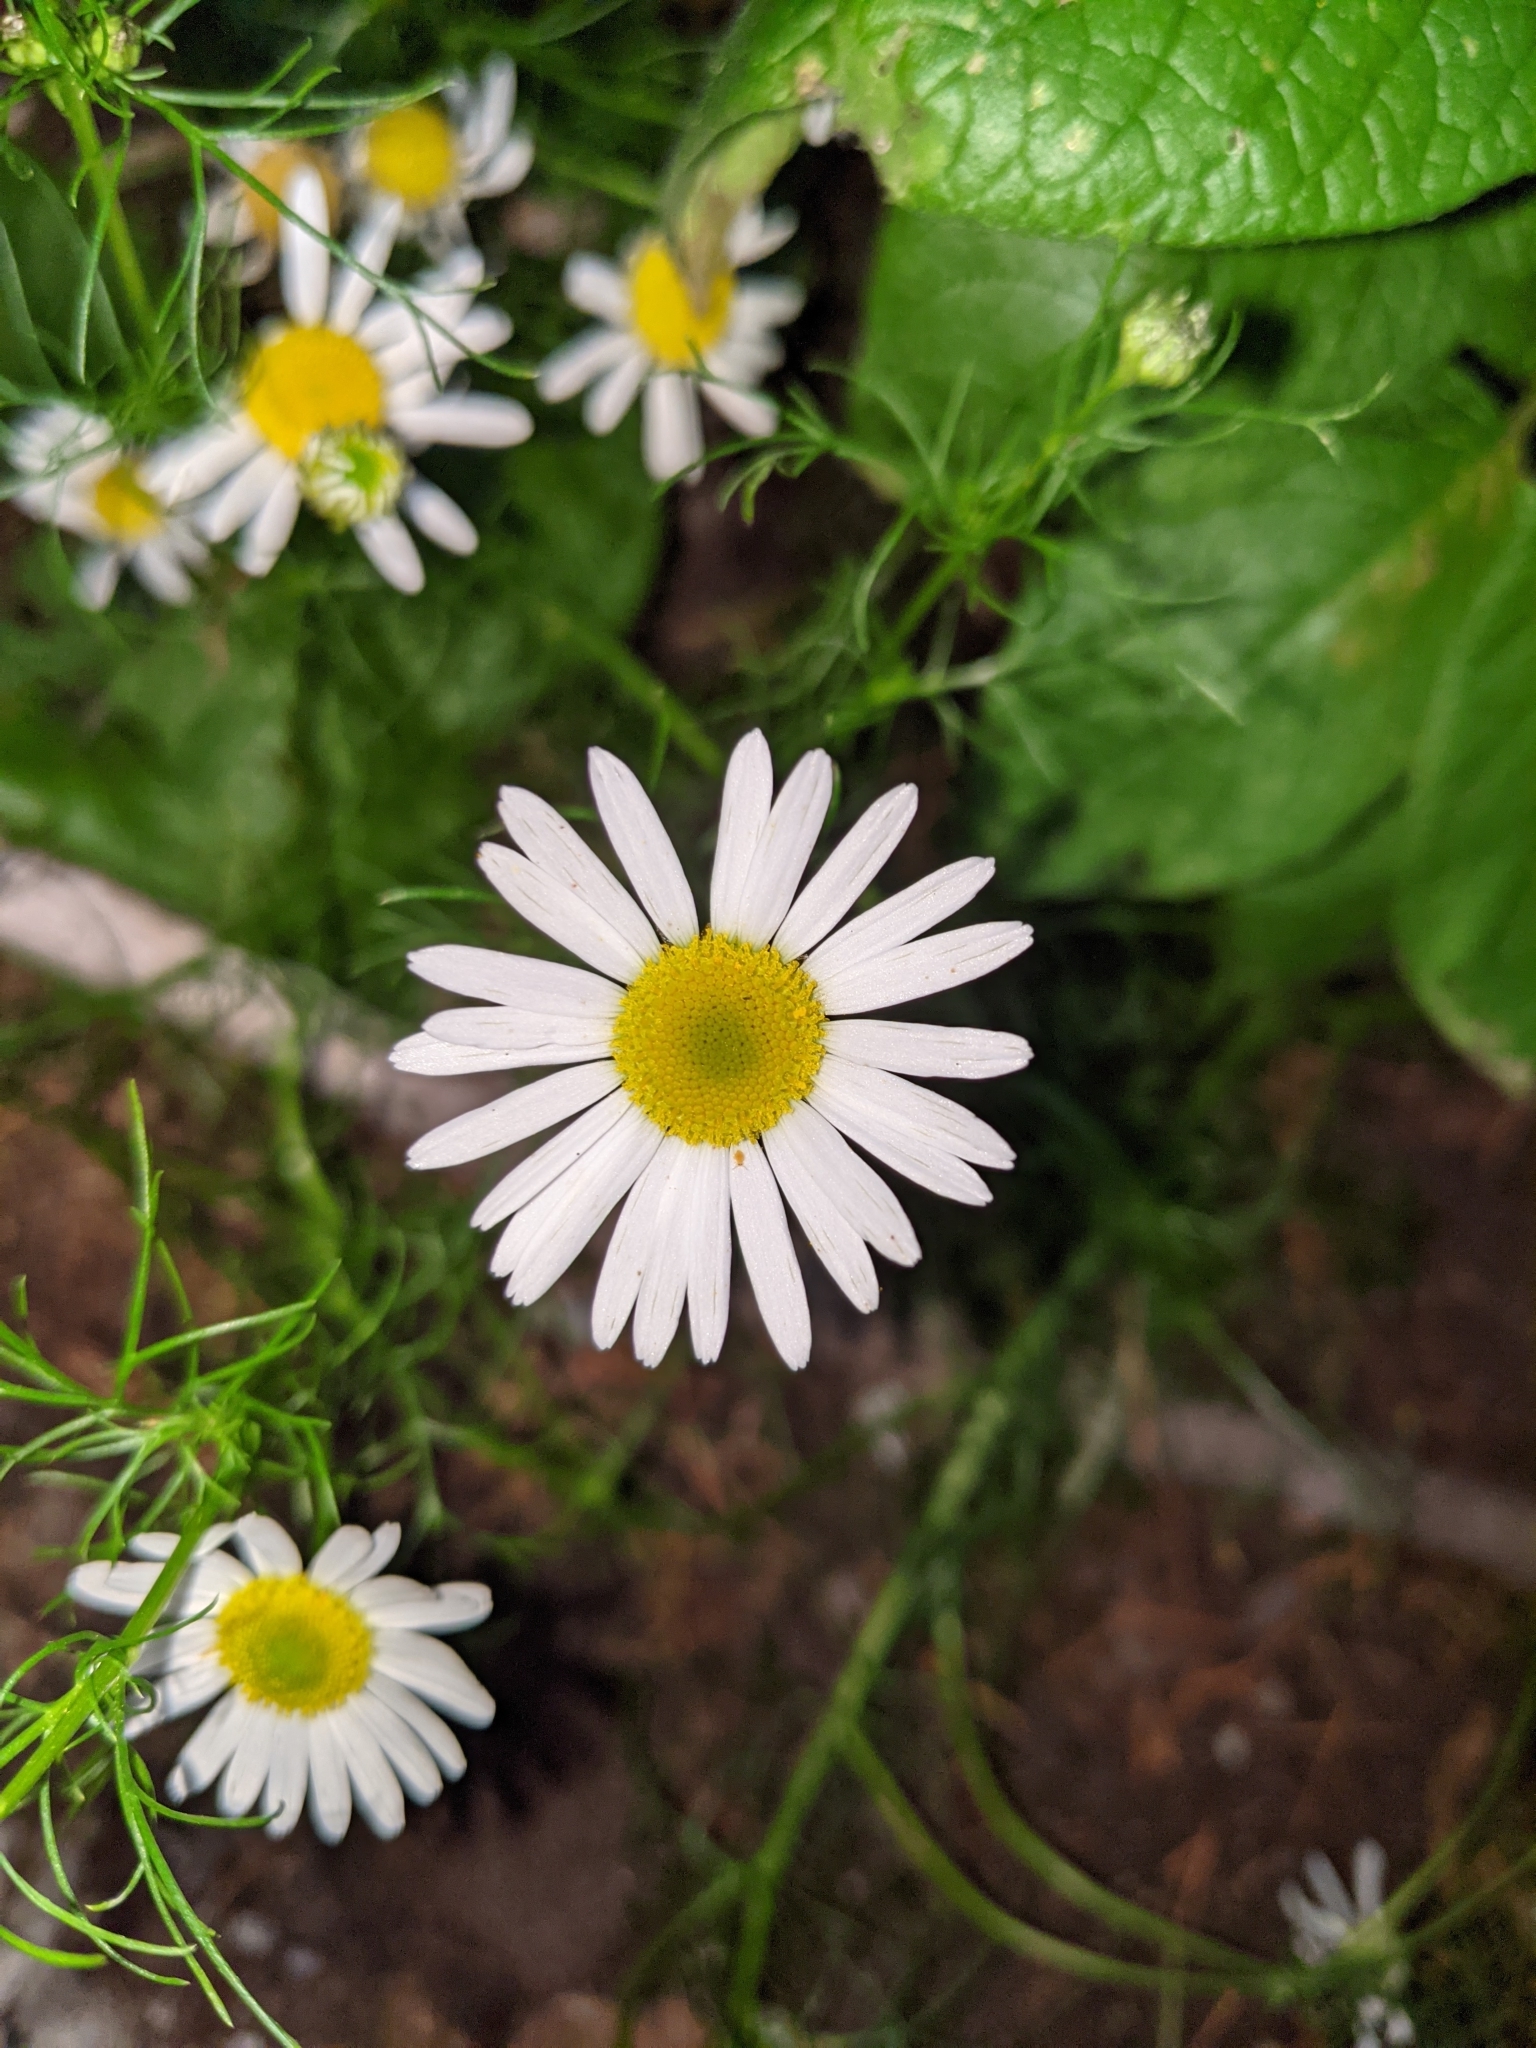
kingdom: Plantae
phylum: Tracheophyta
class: Magnoliopsida
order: Asterales
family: Asteraceae
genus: Tripleurospermum
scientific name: Tripleurospermum inodorum
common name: Scentless mayweed
